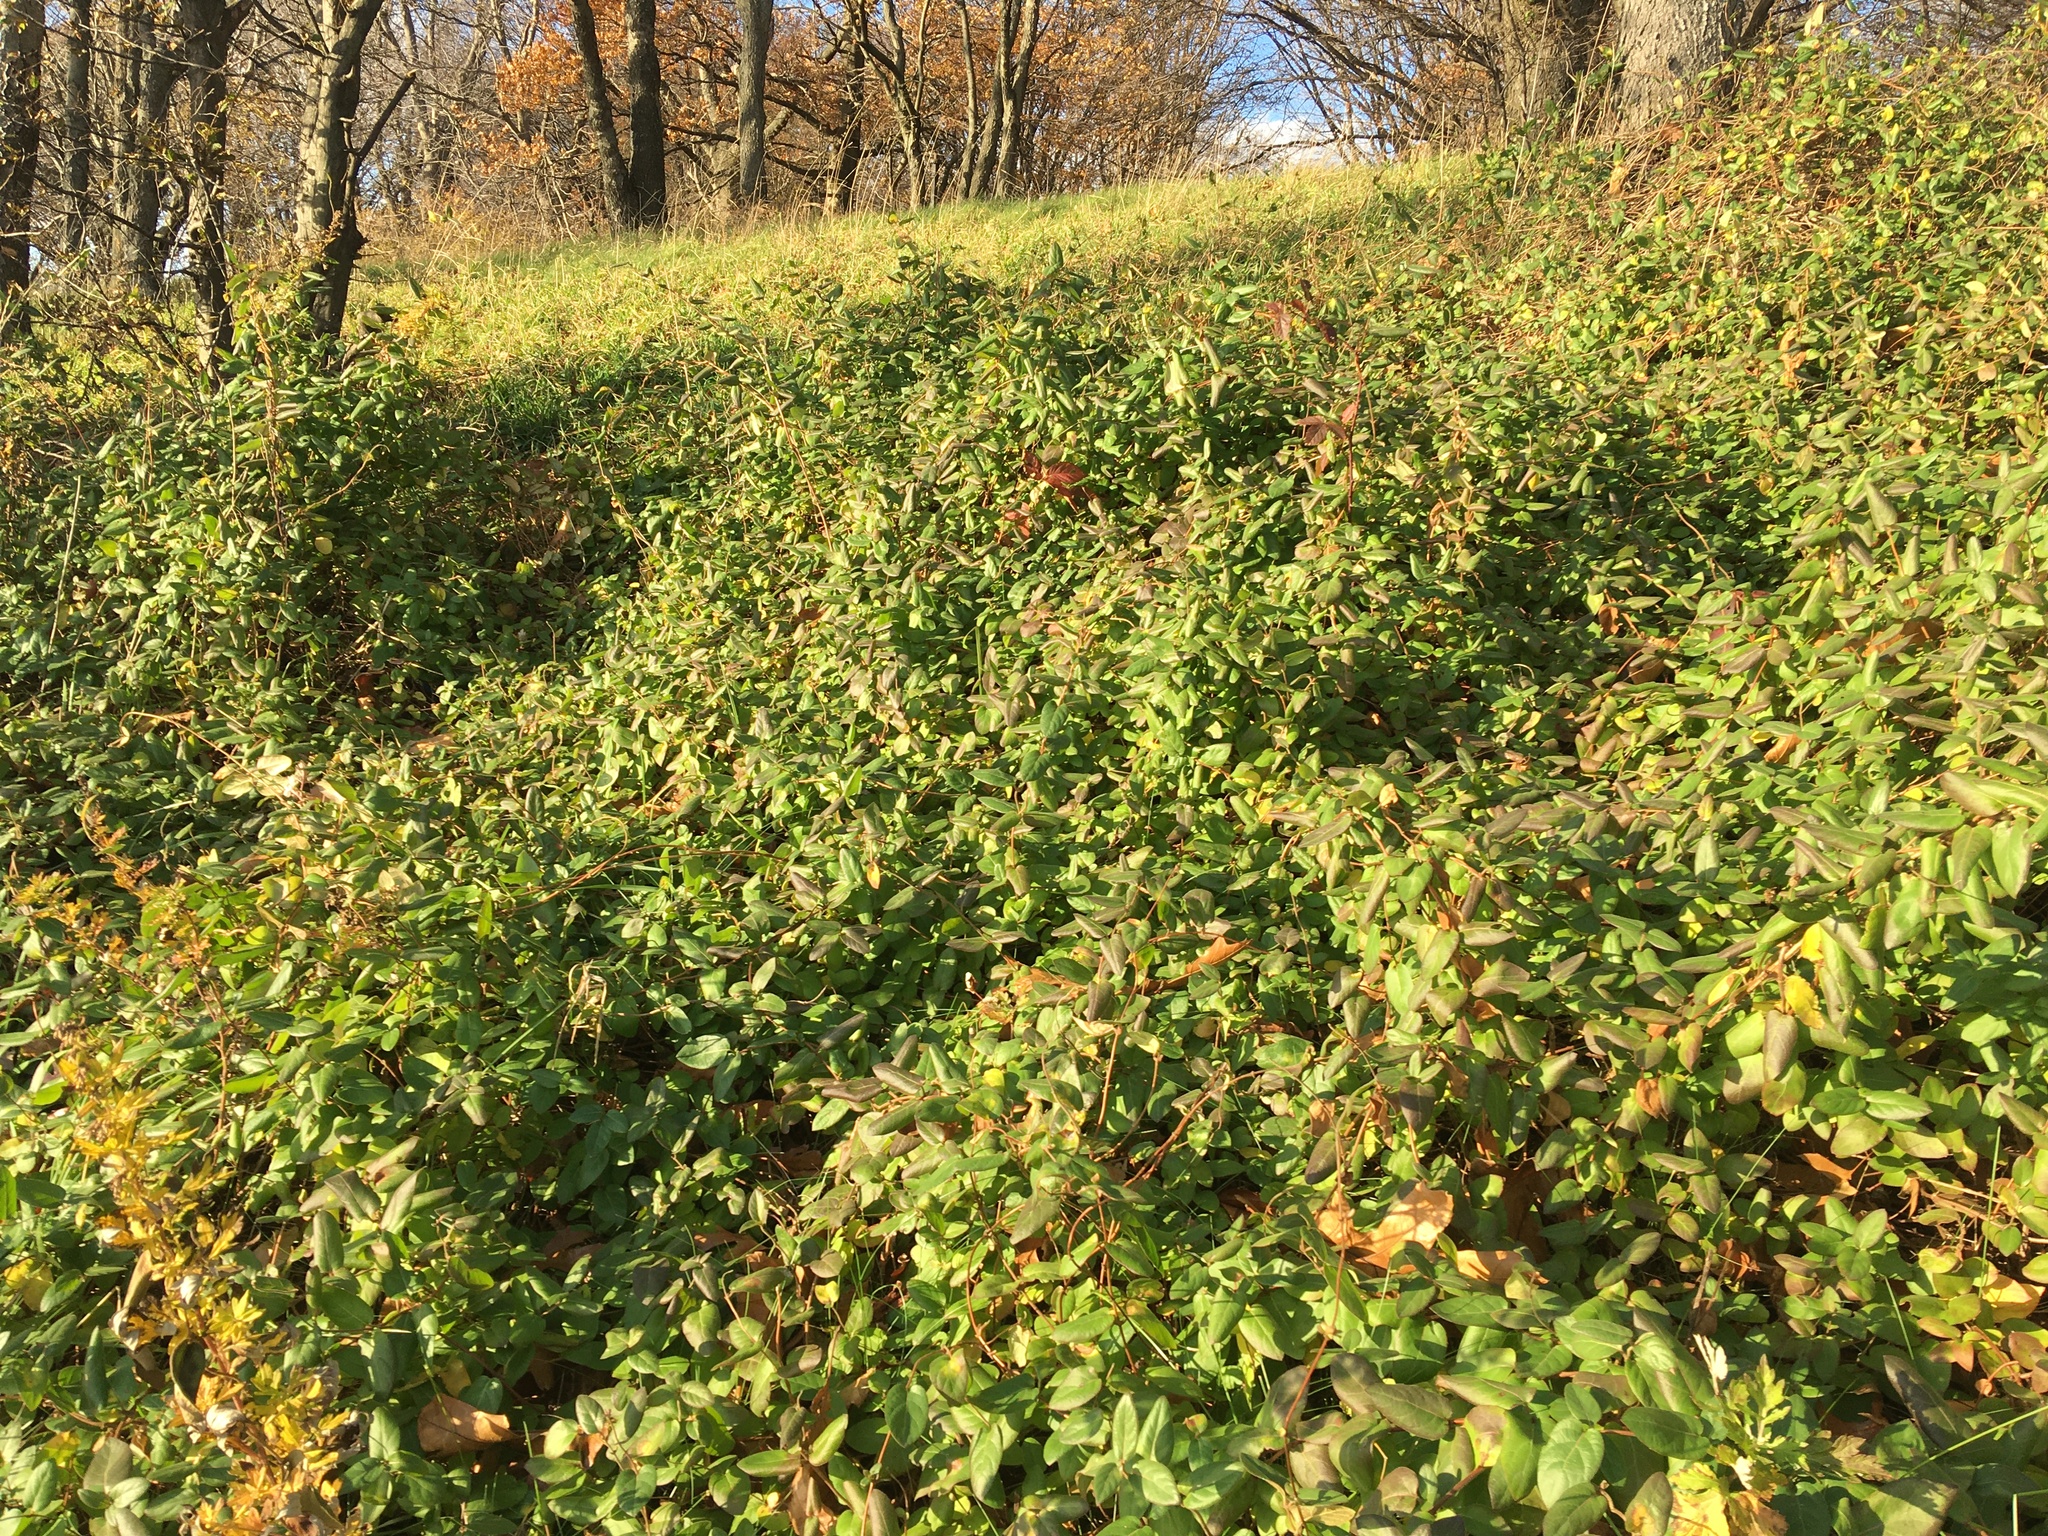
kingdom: Plantae
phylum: Tracheophyta
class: Magnoliopsida
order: Dipsacales
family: Caprifoliaceae
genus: Lonicera
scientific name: Lonicera japonica
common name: Japanese honeysuckle
